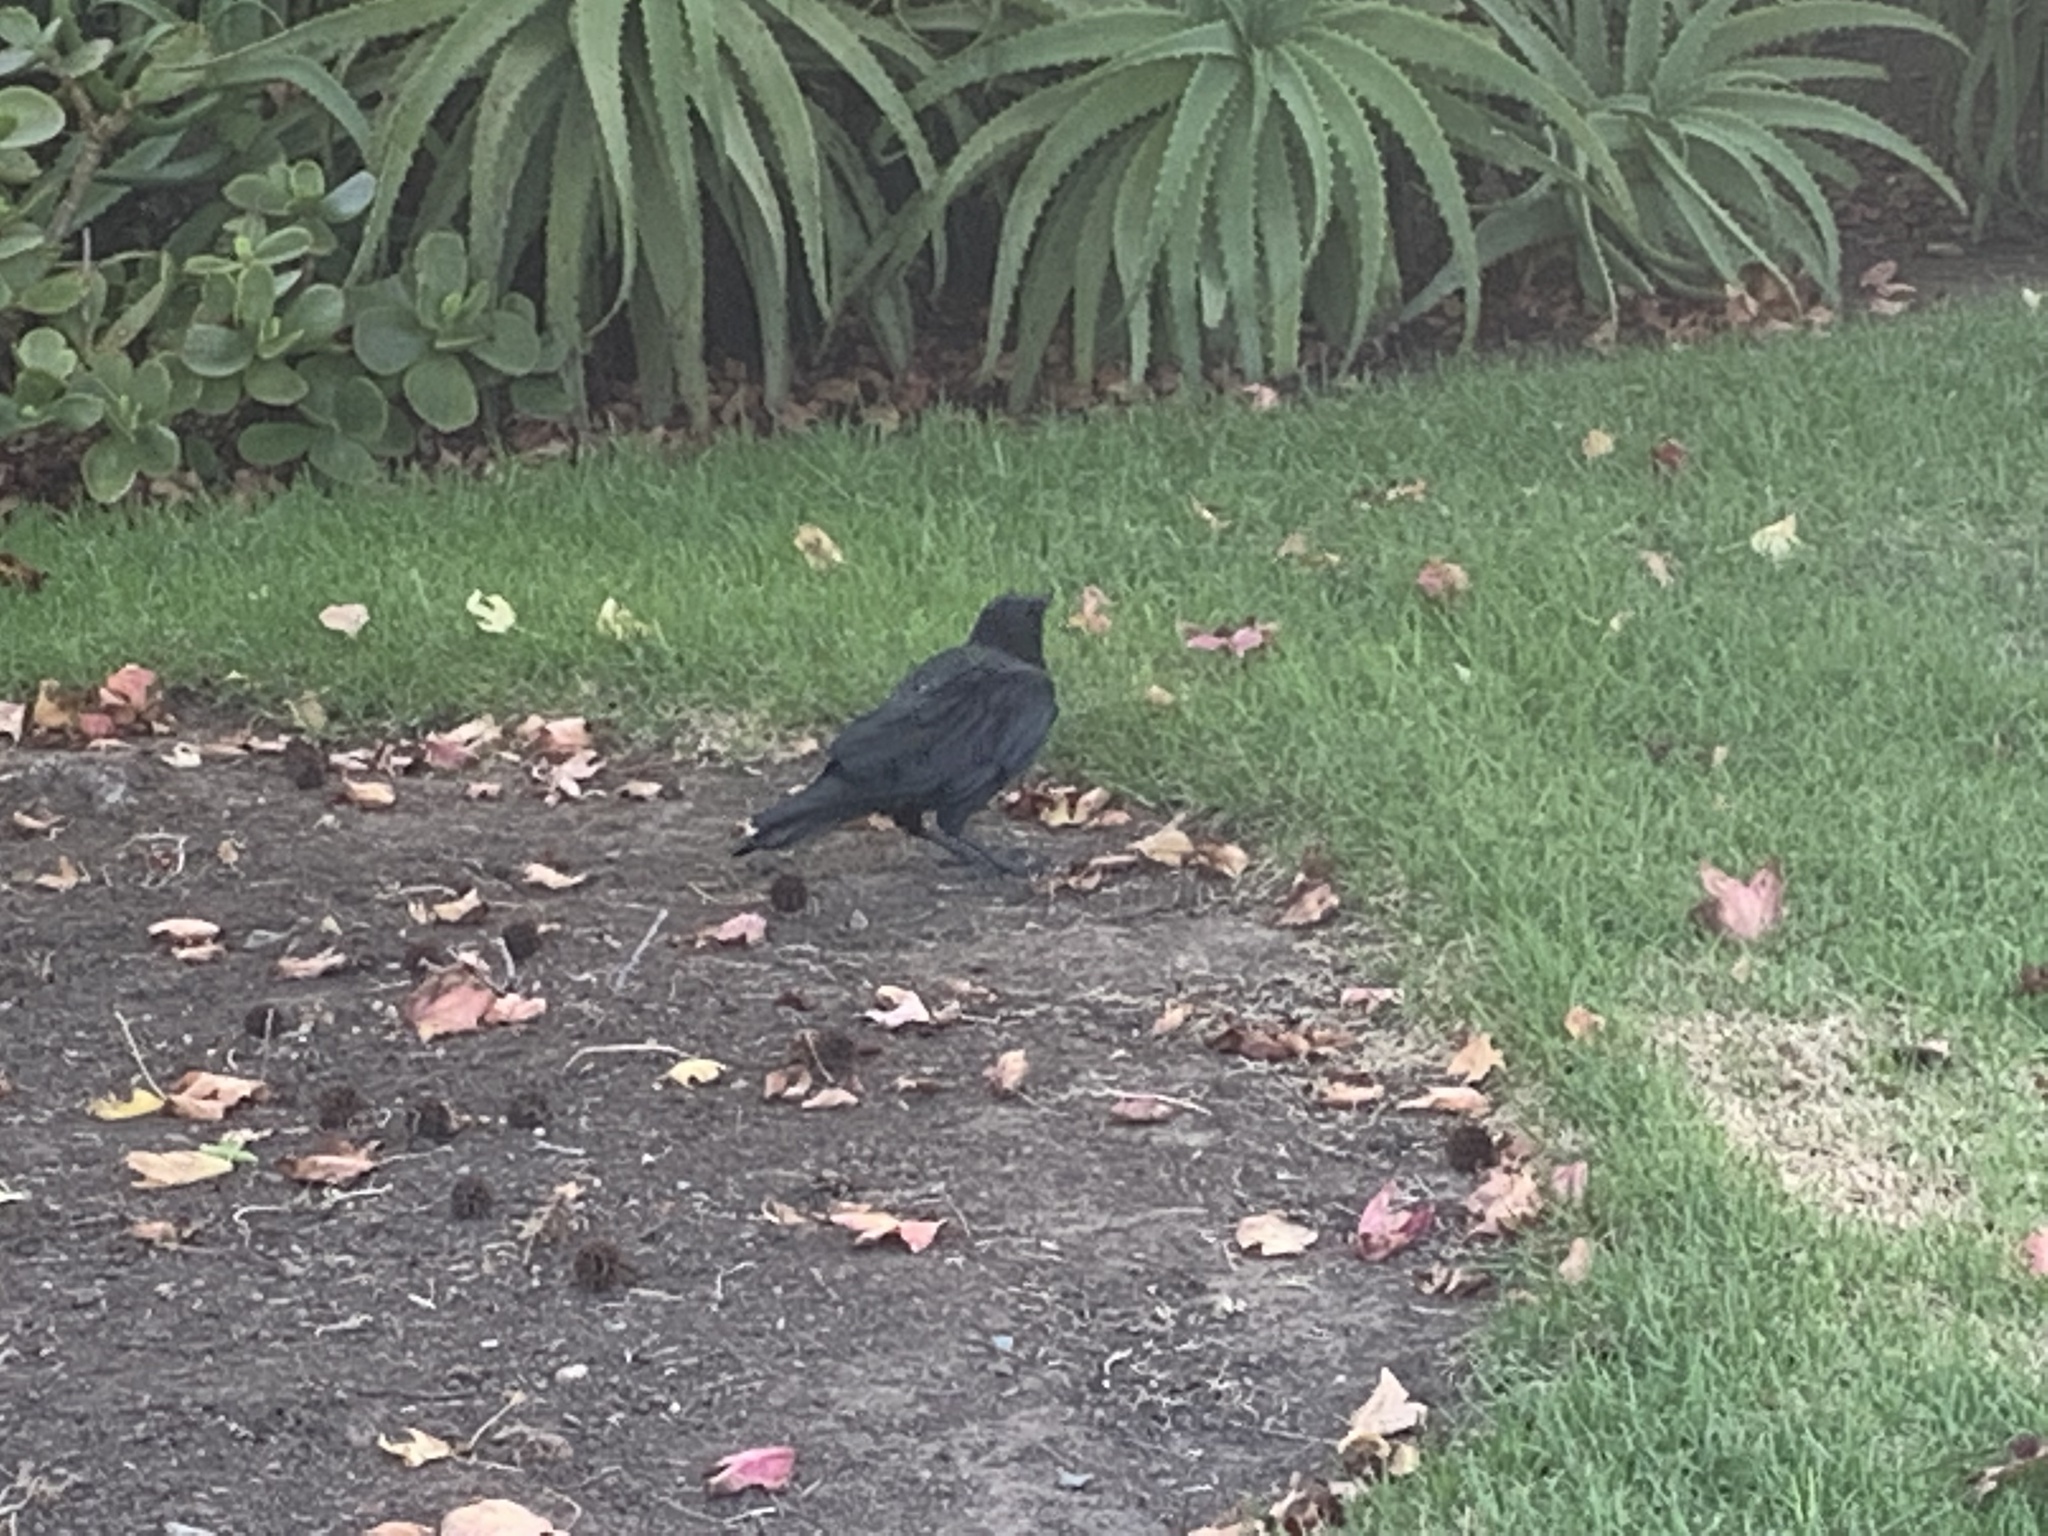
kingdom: Animalia
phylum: Chordata
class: Aves
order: Passeriformes
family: Corvidae
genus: Corvus
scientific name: Corvus brachyrhynchos
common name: American crow
